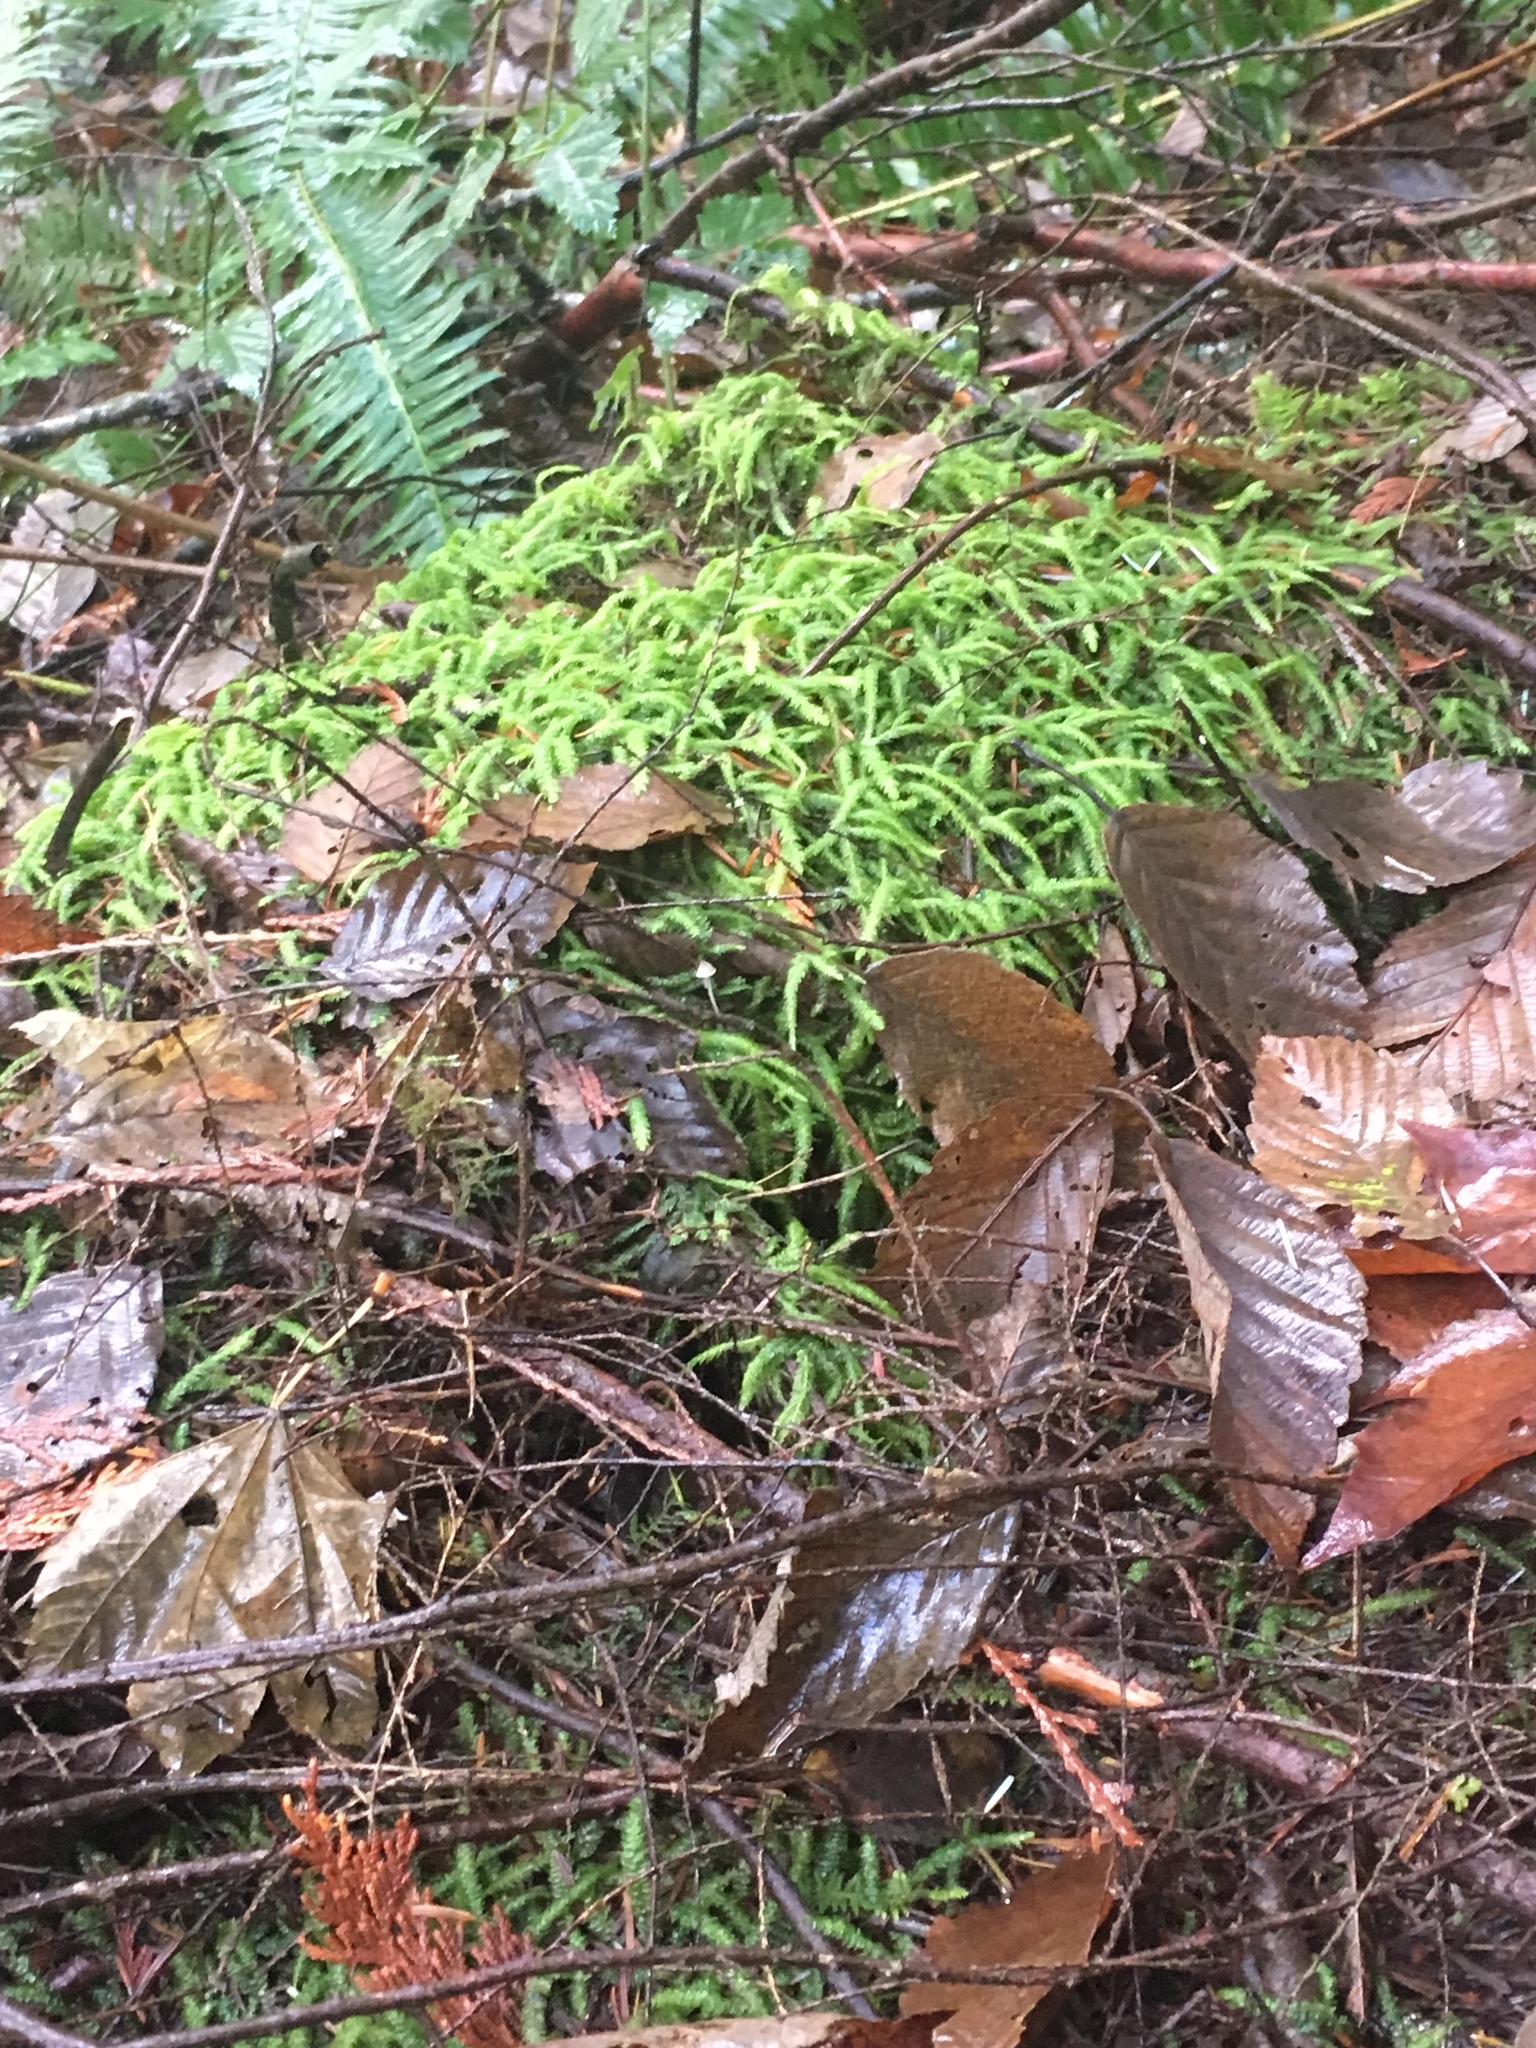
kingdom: Plantae
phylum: Bryophyta
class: Bryopsida
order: Hypnales
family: Plagiotheciaceae
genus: Plagiothecium
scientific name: Plagiothecium undulatum
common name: Waved silk-moss
